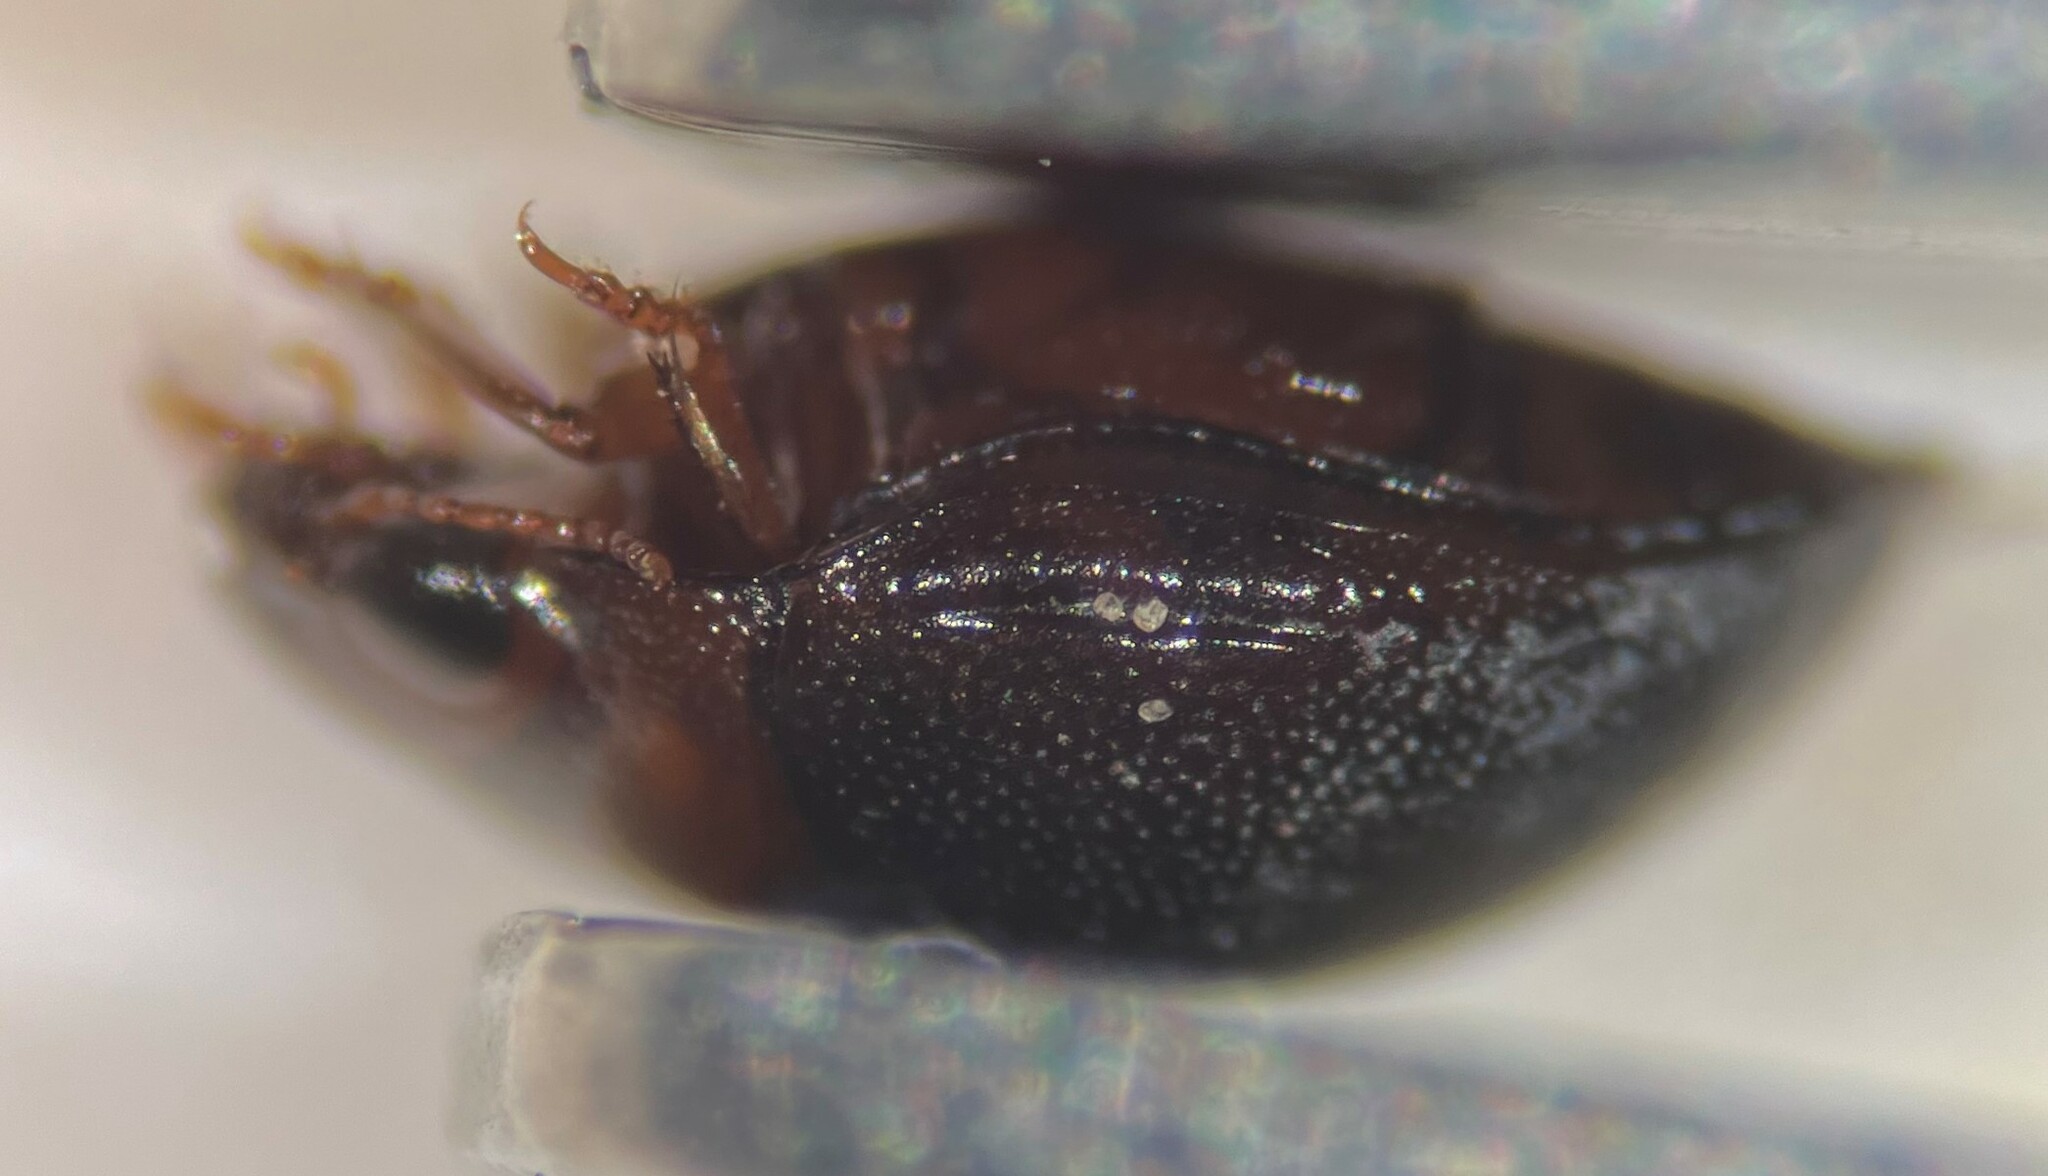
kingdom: Animalia
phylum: Arthropoda
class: Insecta
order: Coleoptera
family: Dytiscidae
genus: Hydrovatus
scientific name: Hydrovatus hornii
